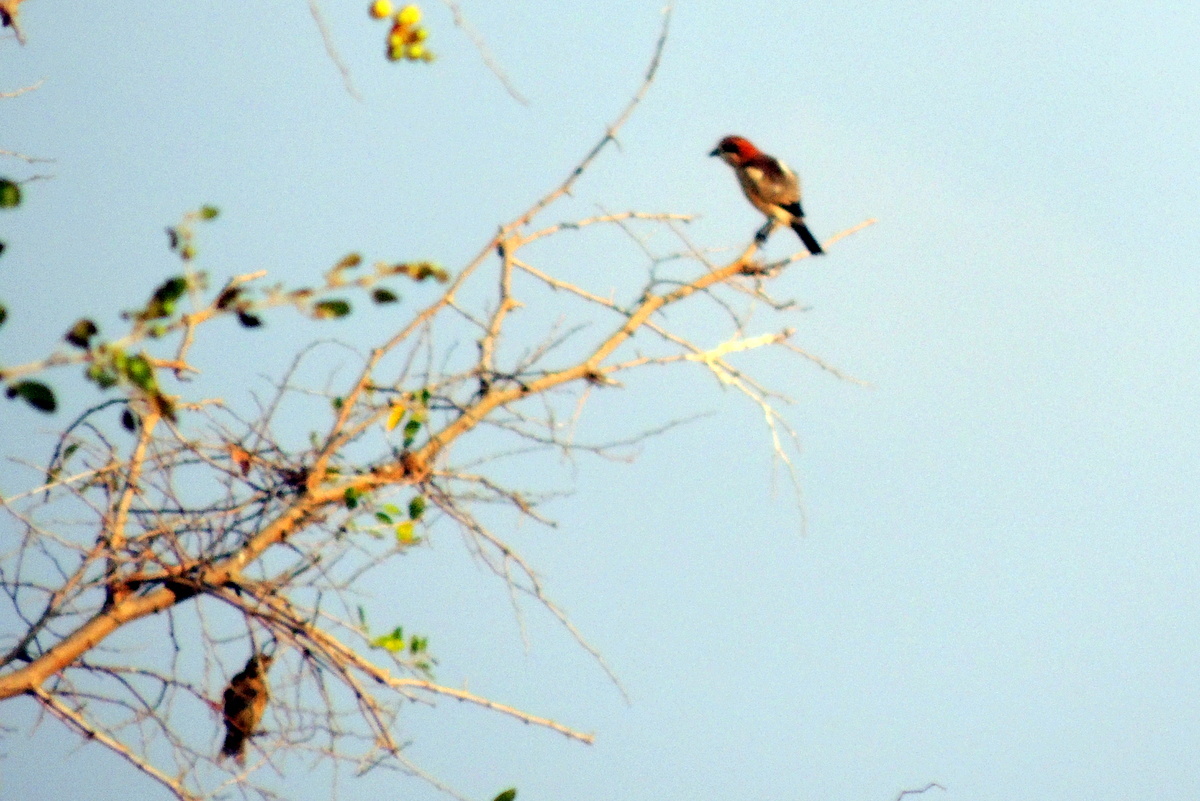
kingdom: Animalia
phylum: Chordata
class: Aves
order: Passeriformes
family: Laniidae
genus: Lanius
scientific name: Lanius senator
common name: Woodchat shrike
